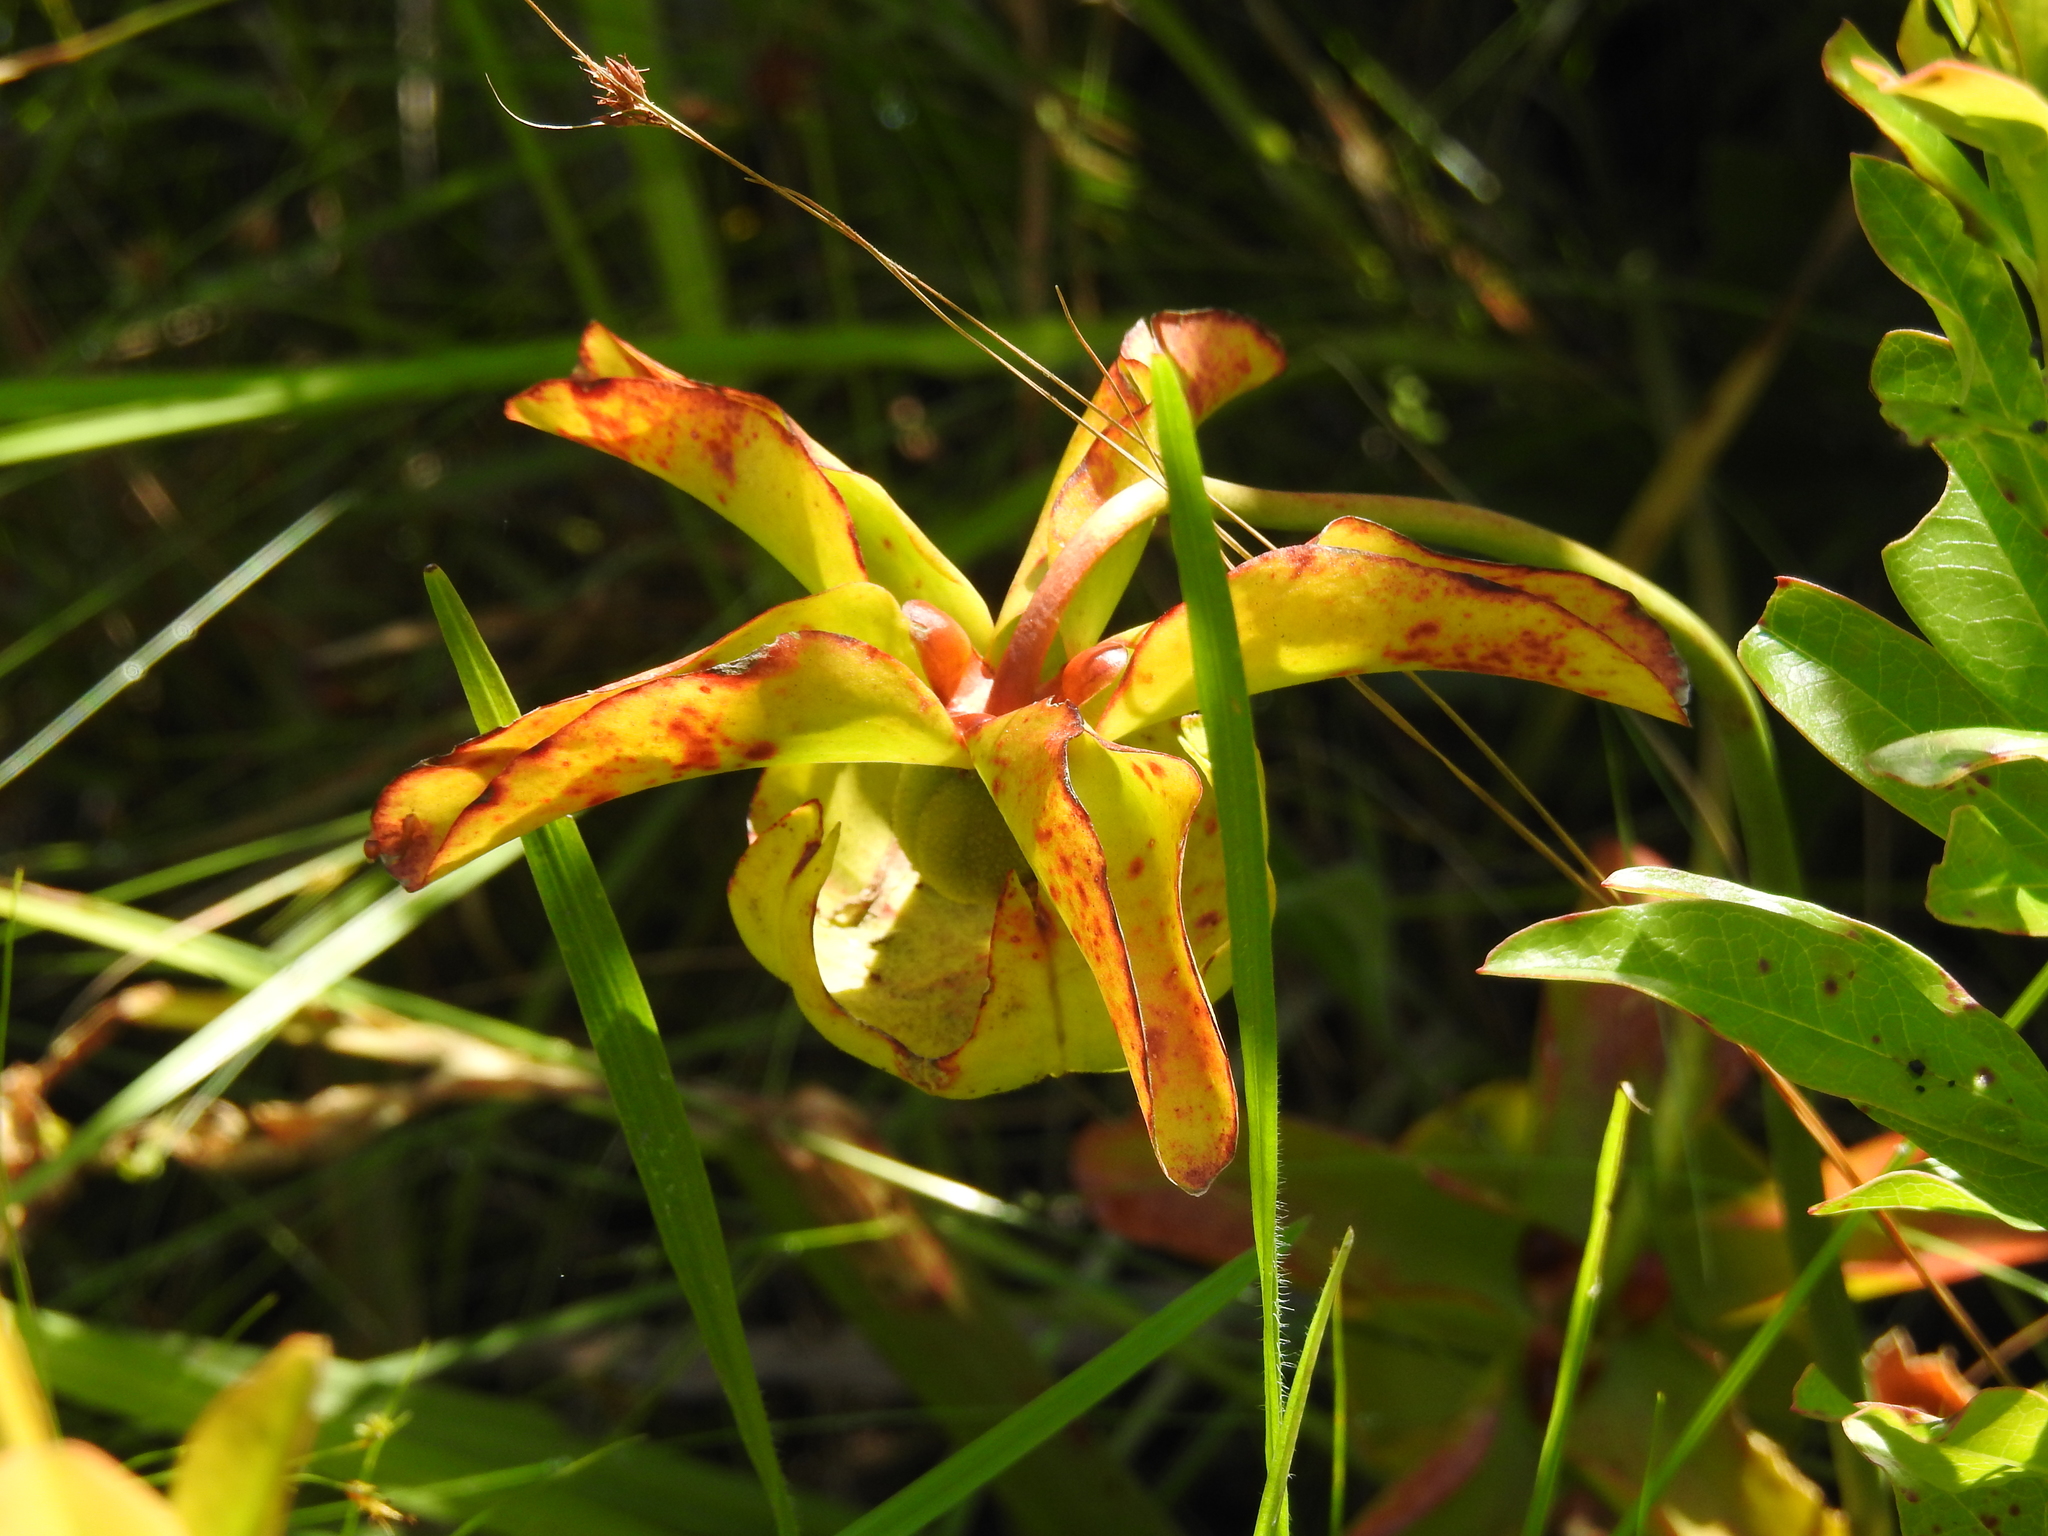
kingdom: Plantae
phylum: Tracheophyta
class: Magnoliopsida
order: Ericales
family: Sarraceniaceae
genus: Sarracenia
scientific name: Sarracenia alata
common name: Yellow trumpets
